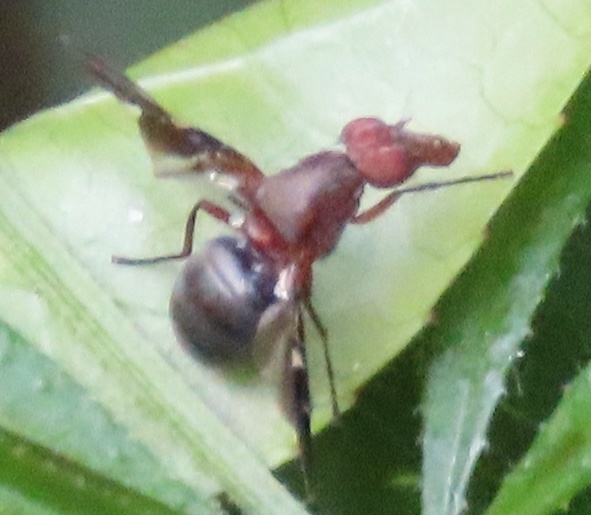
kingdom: Animalia
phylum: Arthropoda
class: Insecta
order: Diptera
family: Ulidiidae
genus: Delphinia
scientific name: Delphinia picta
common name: Common picture-winged fly
